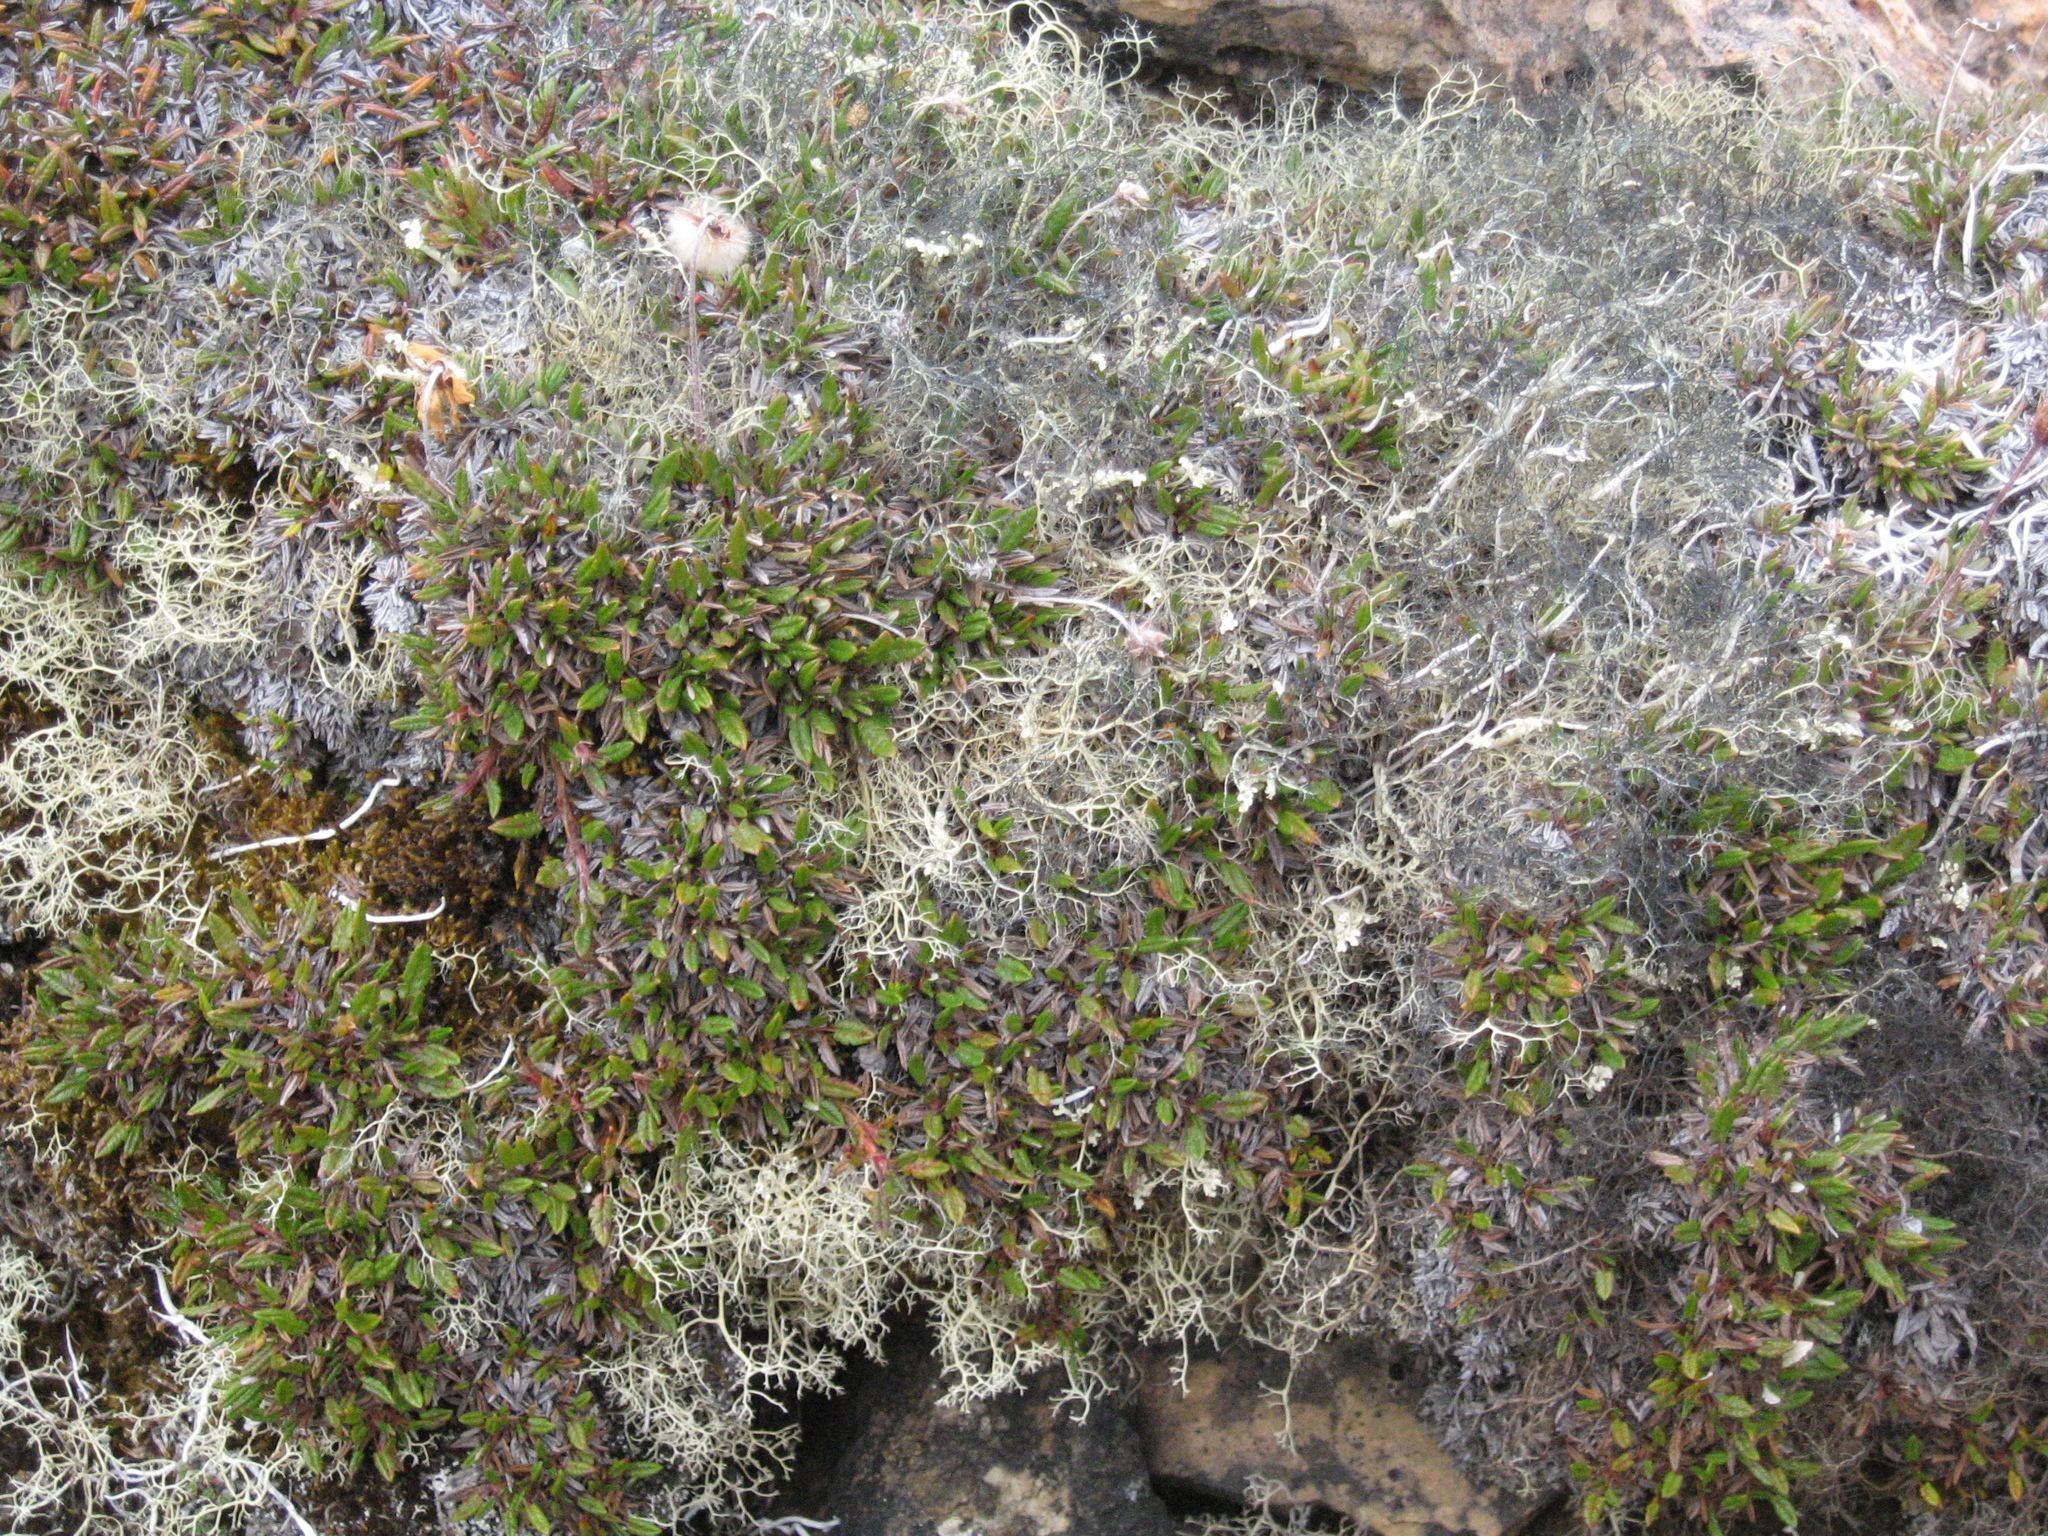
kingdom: Plantae
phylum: Tracheophyta
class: Magnoliopsida
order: Rosales
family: Rosaceae
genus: Dryas
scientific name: Dryas integrifolia
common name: Entire-leaved mountain avens
